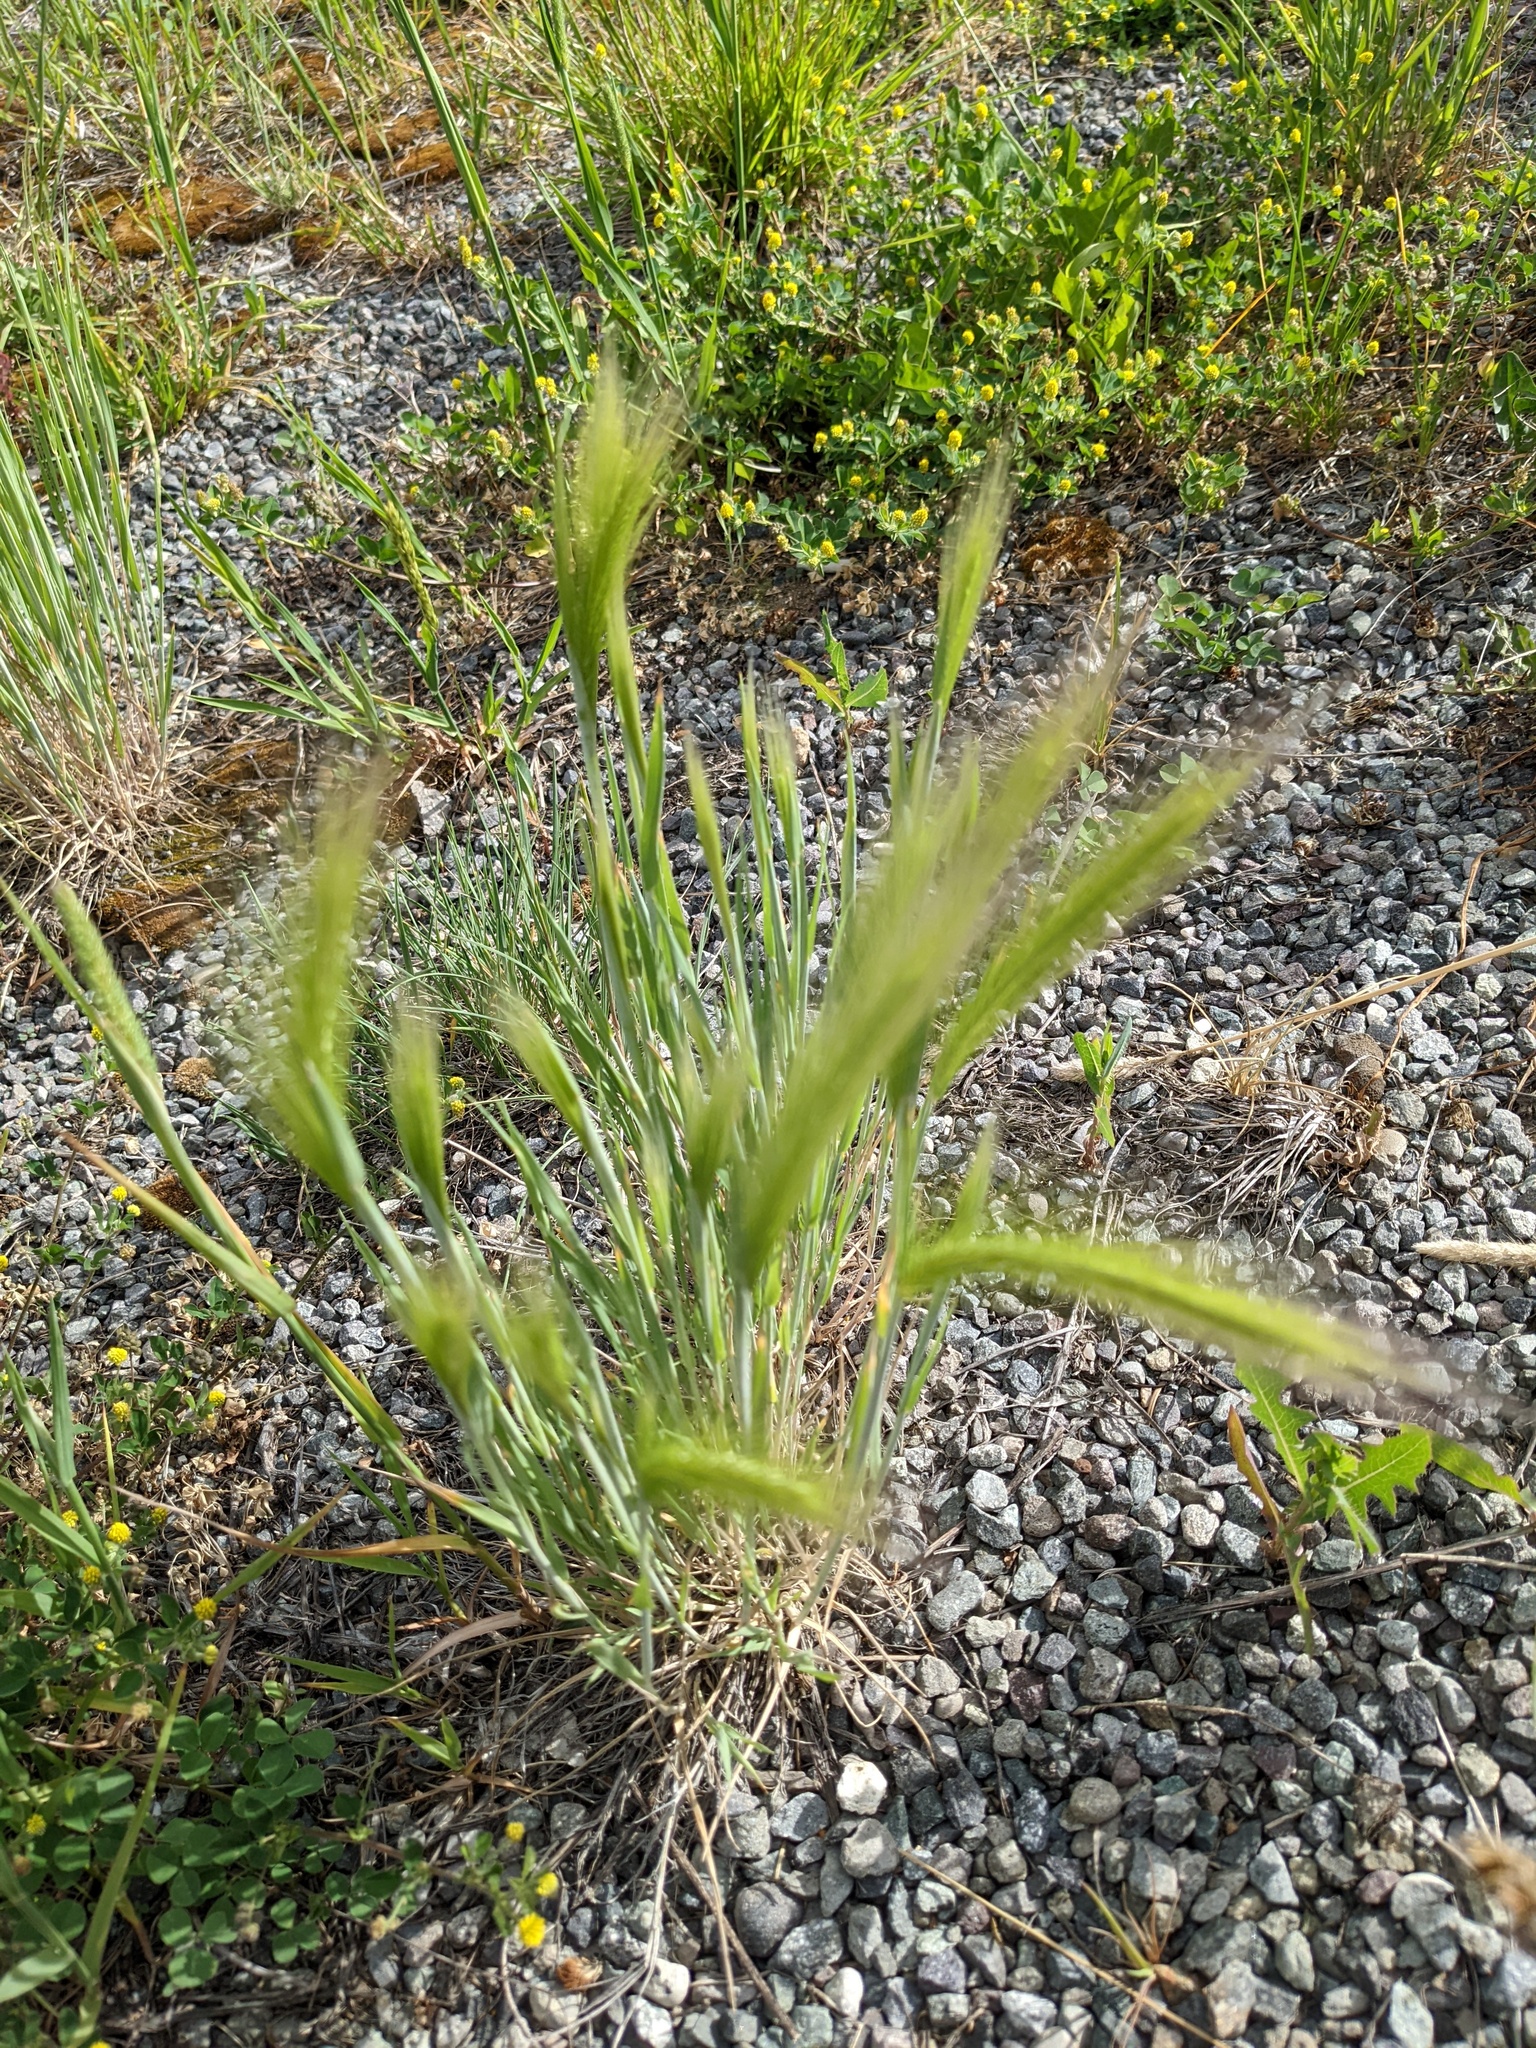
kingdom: Plantae
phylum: Tracheophyta
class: Liliopsida
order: Poales
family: Poaceae
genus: Hordeum
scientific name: Hordeum jubatum
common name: Foxtail barley
